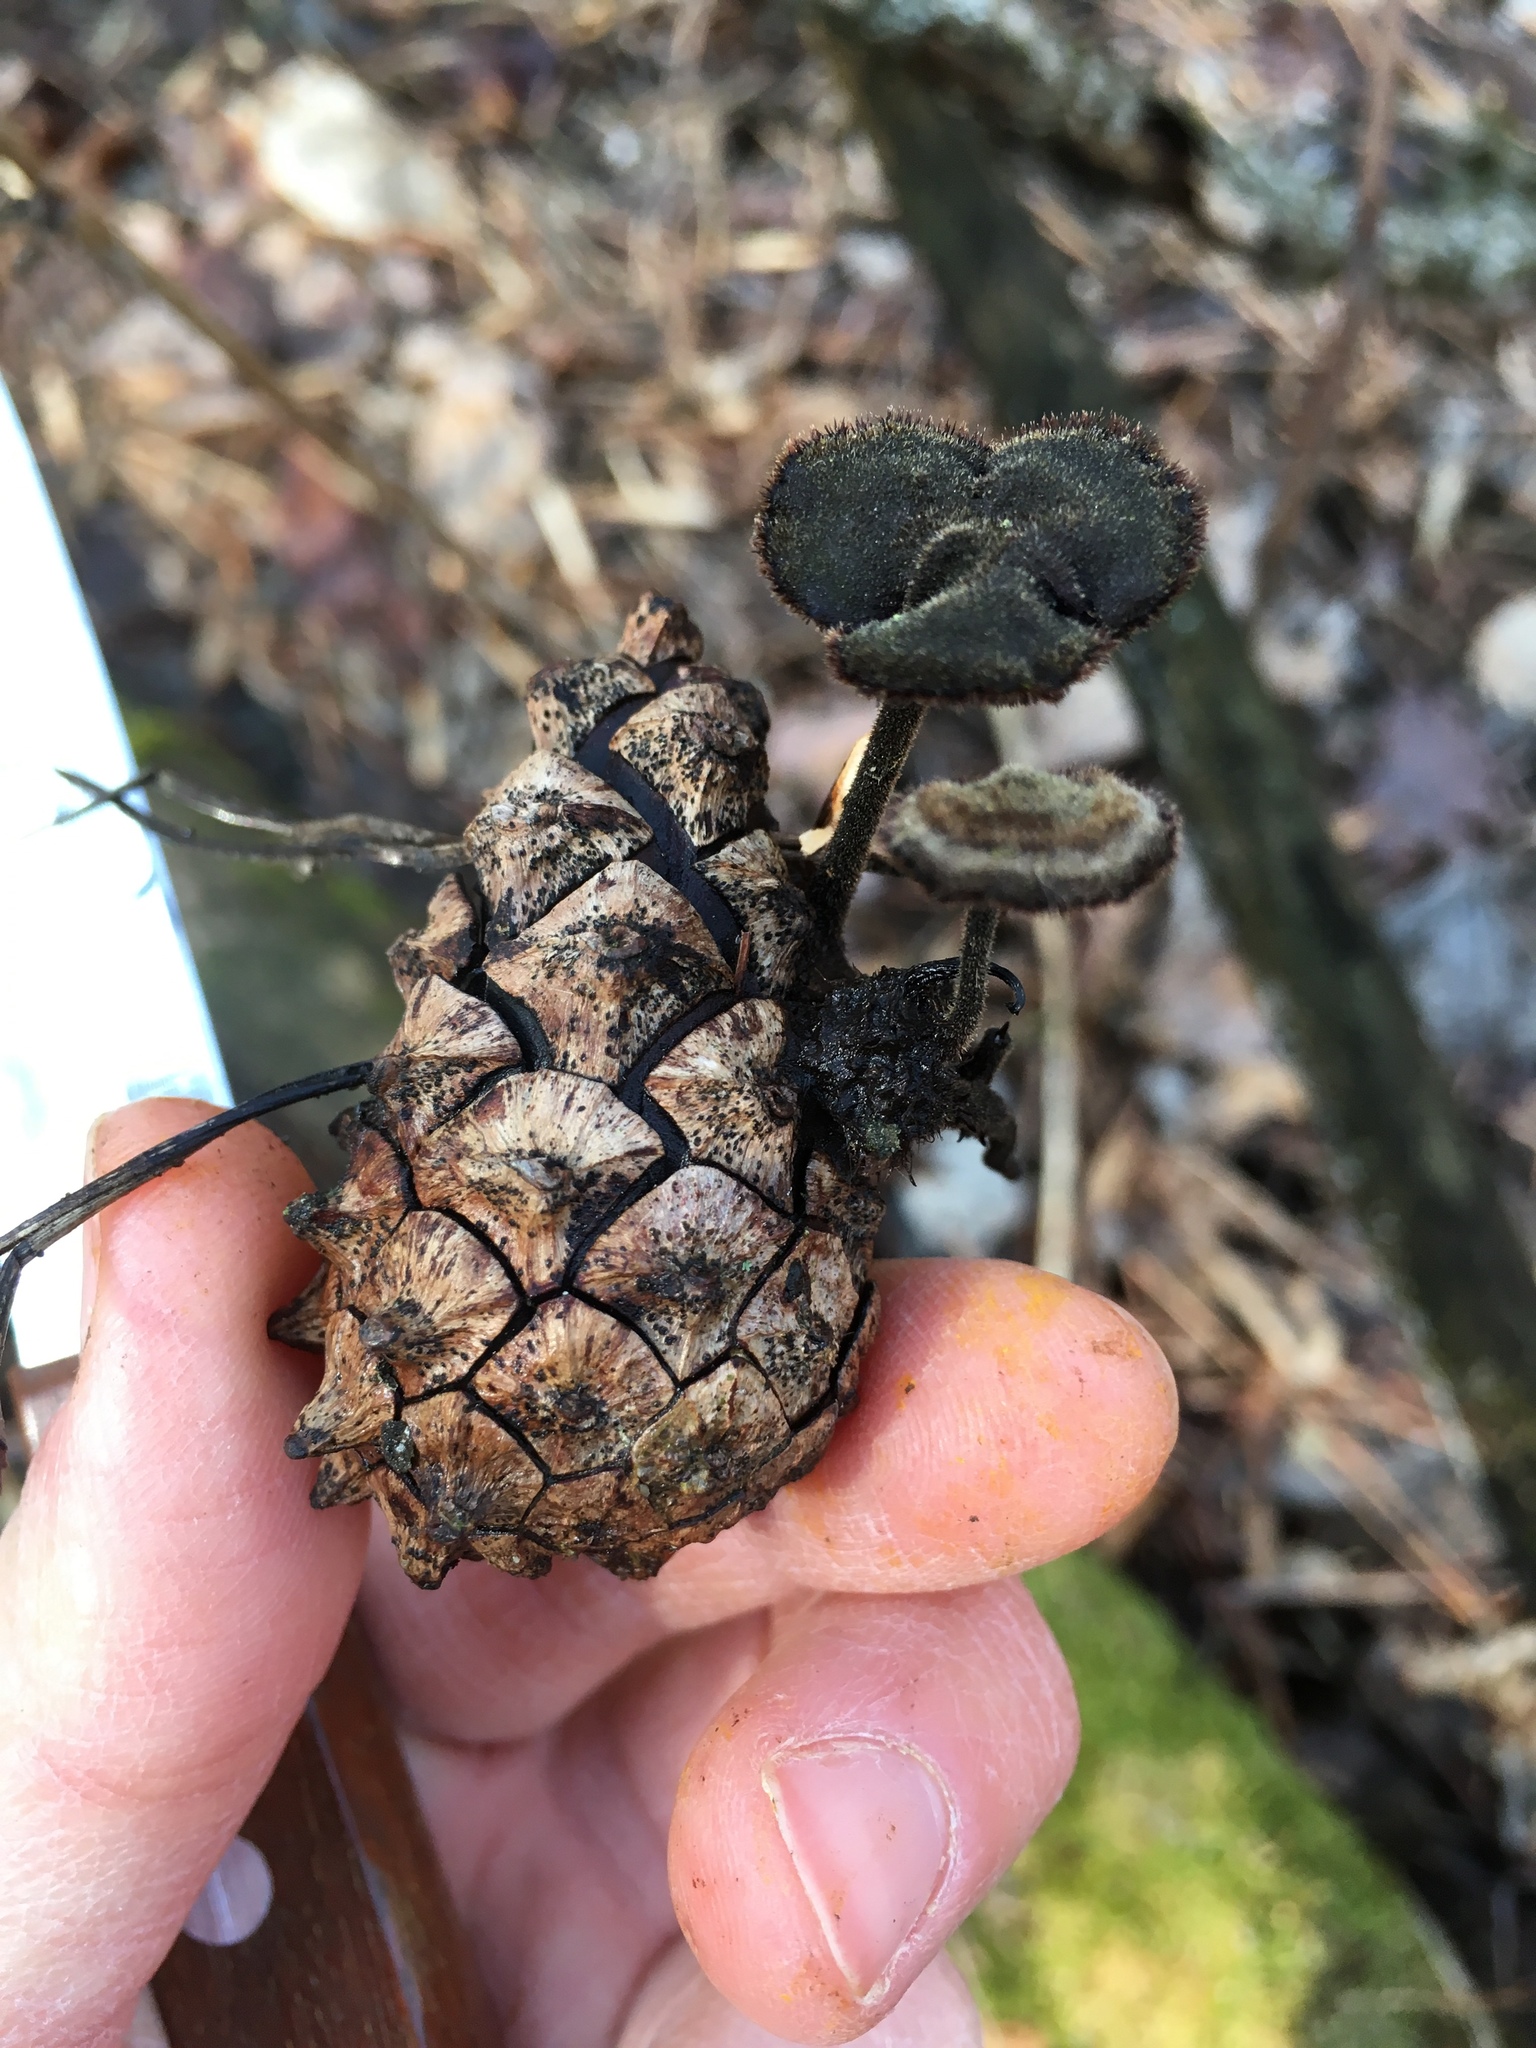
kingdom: Fungi
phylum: Basidiomycota
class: Agaricomycetes
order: Russulales
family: Auriscalpiaceae
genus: Auriscalpium
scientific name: Auriscalpium vulgare
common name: Earpick fungus
